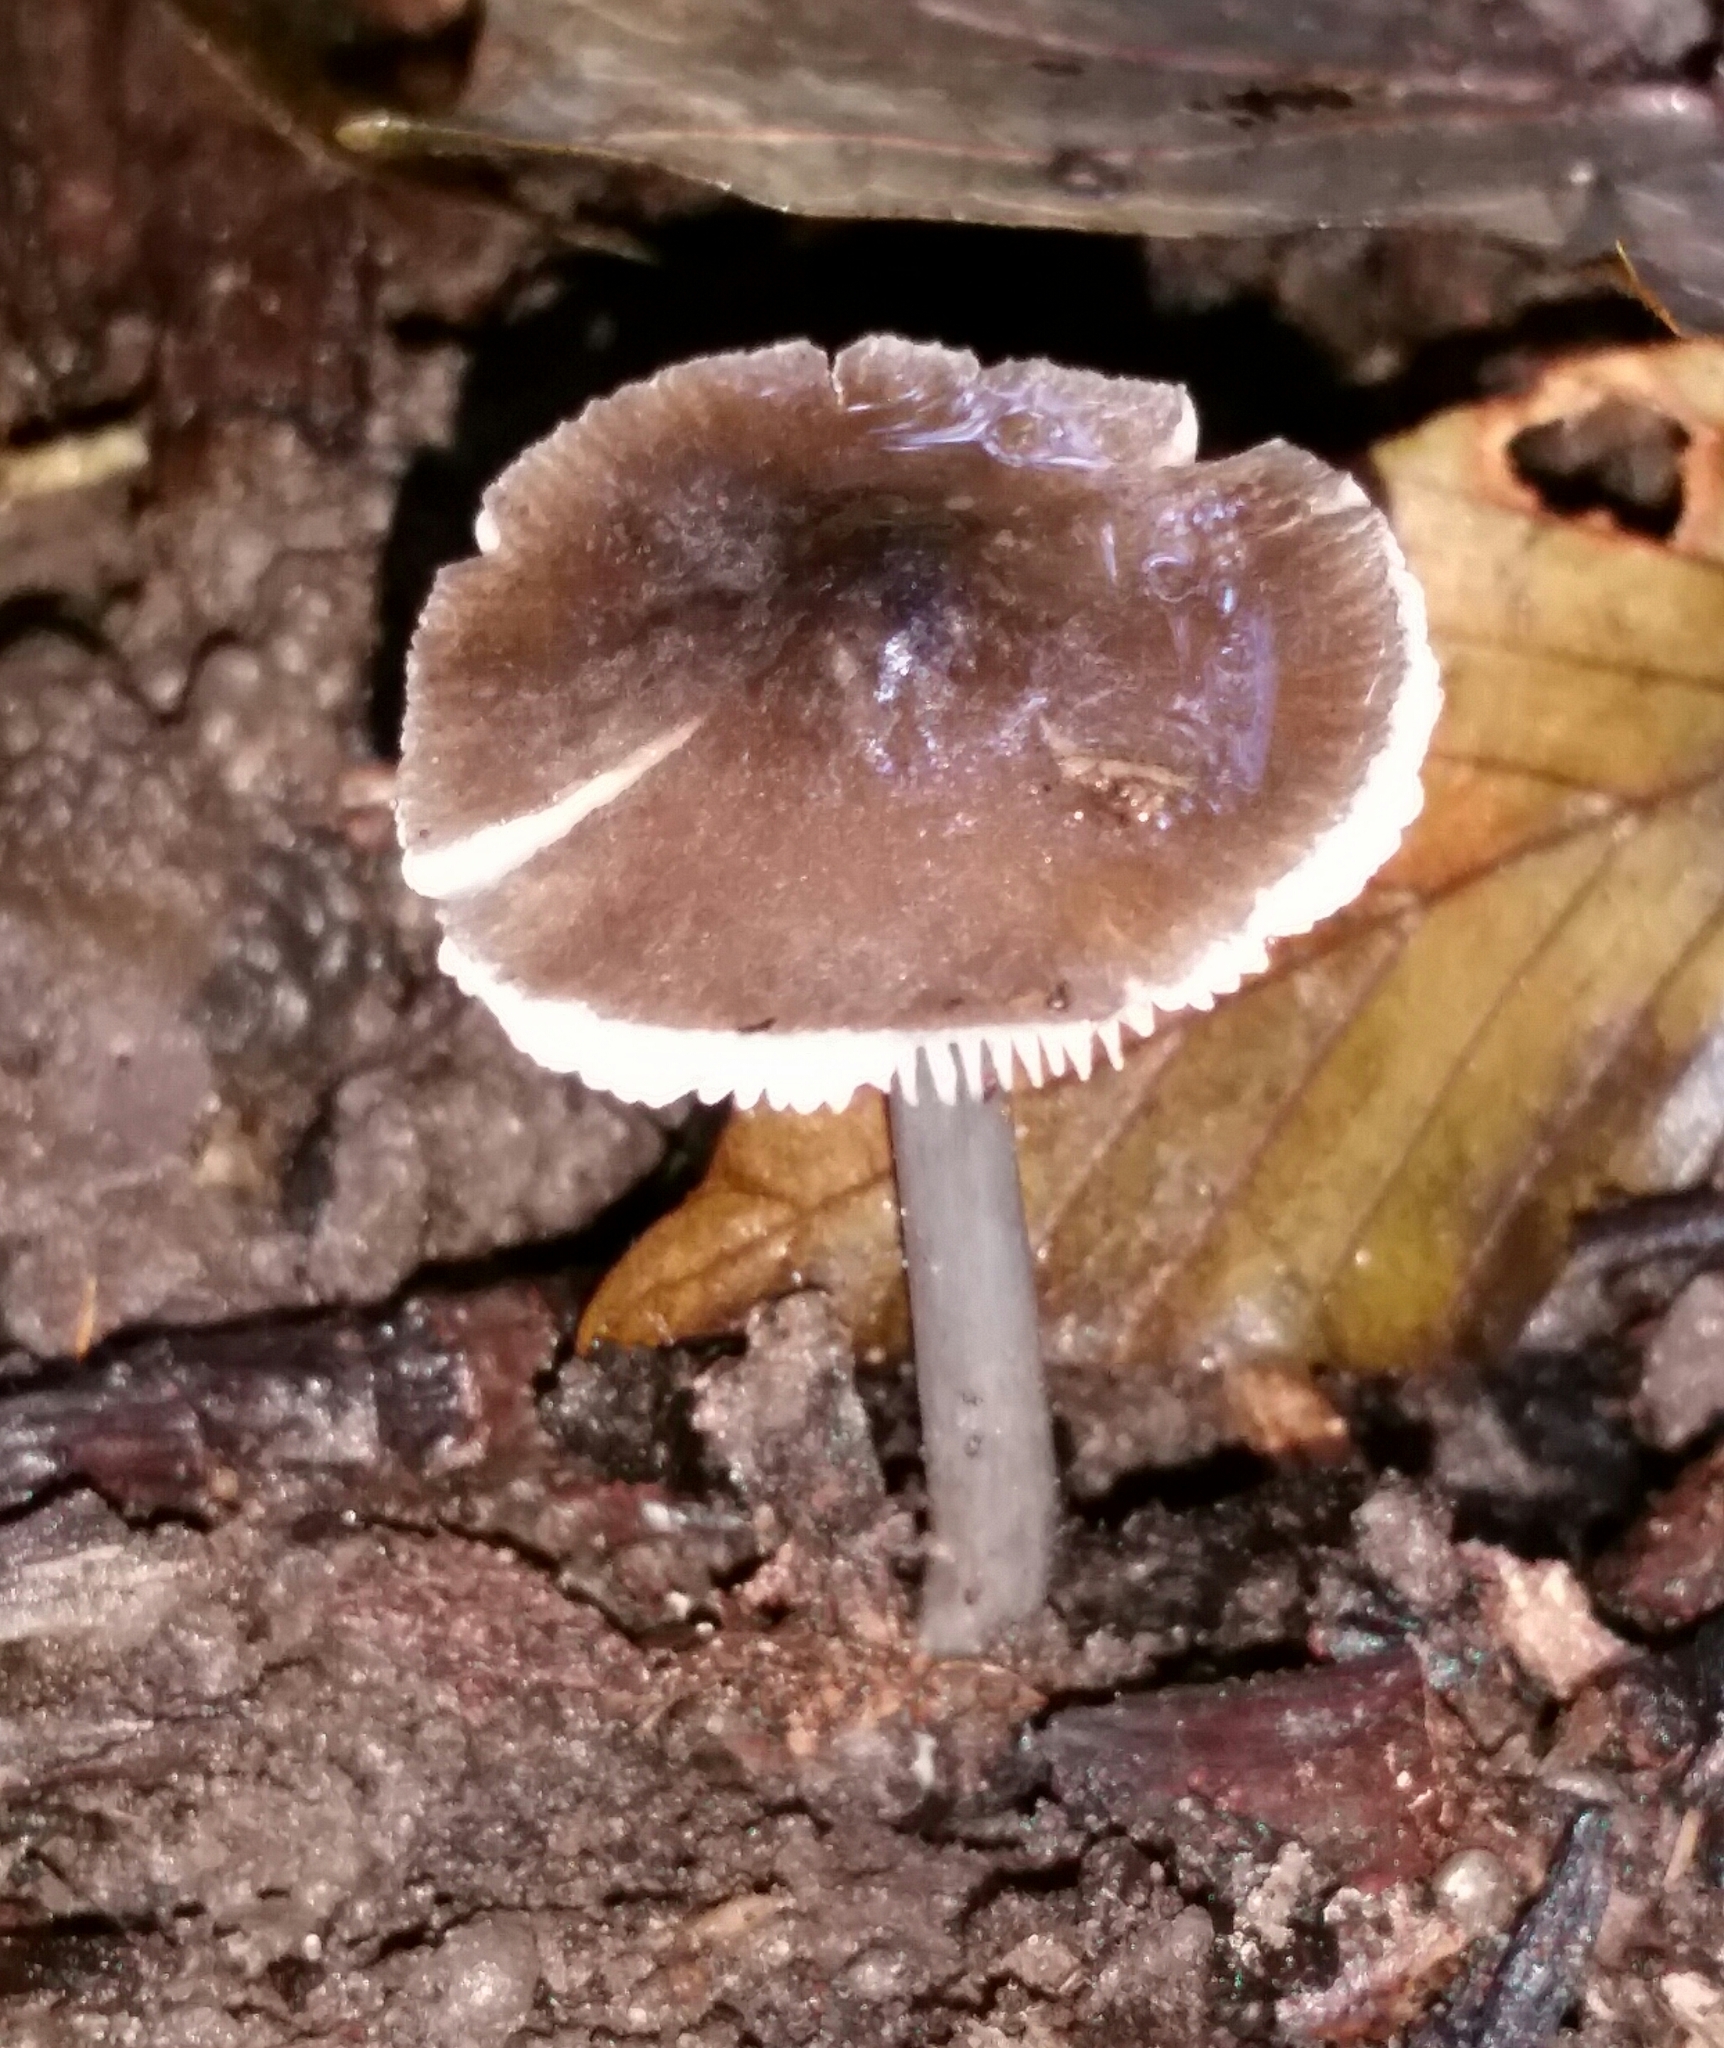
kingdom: Fungi
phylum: Basidiomycota
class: Agaricomycetes
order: Agaricales
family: Hygrophoraceae
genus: Gliophorus
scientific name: Gliophorus irrigatus
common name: Slimy waxcap
